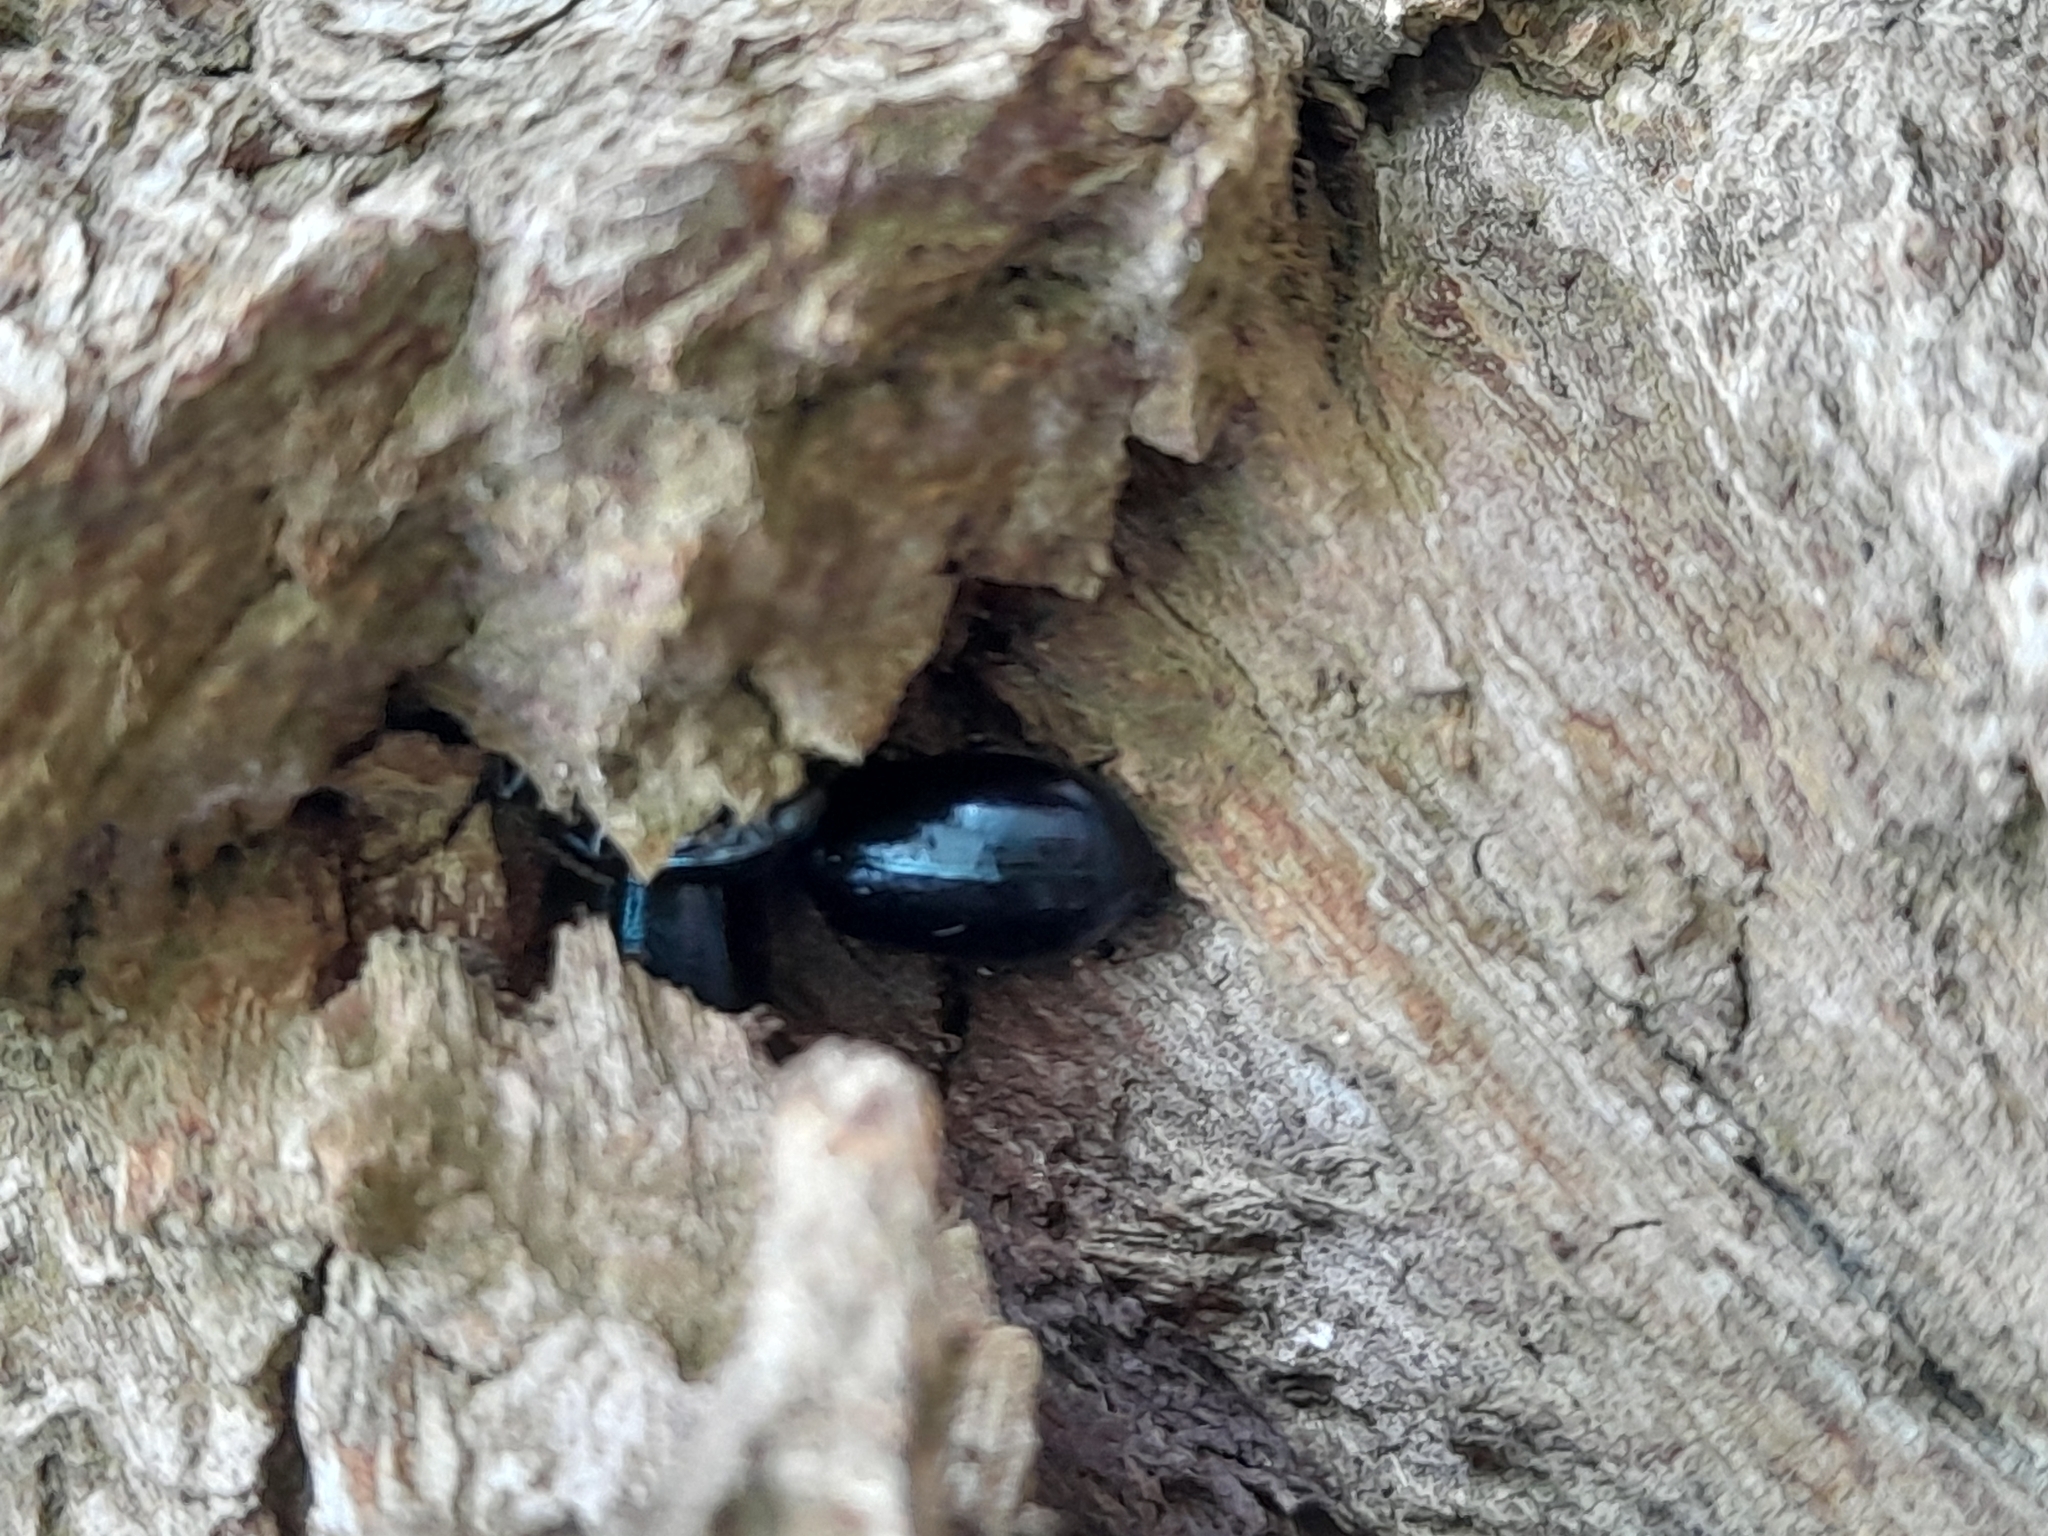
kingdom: Animalia
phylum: Arthropoda
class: Insecta
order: Coleoptera
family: Chrysomelidae
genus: Agelastica
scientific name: Agelastica alni
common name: Alder leaf beetle
